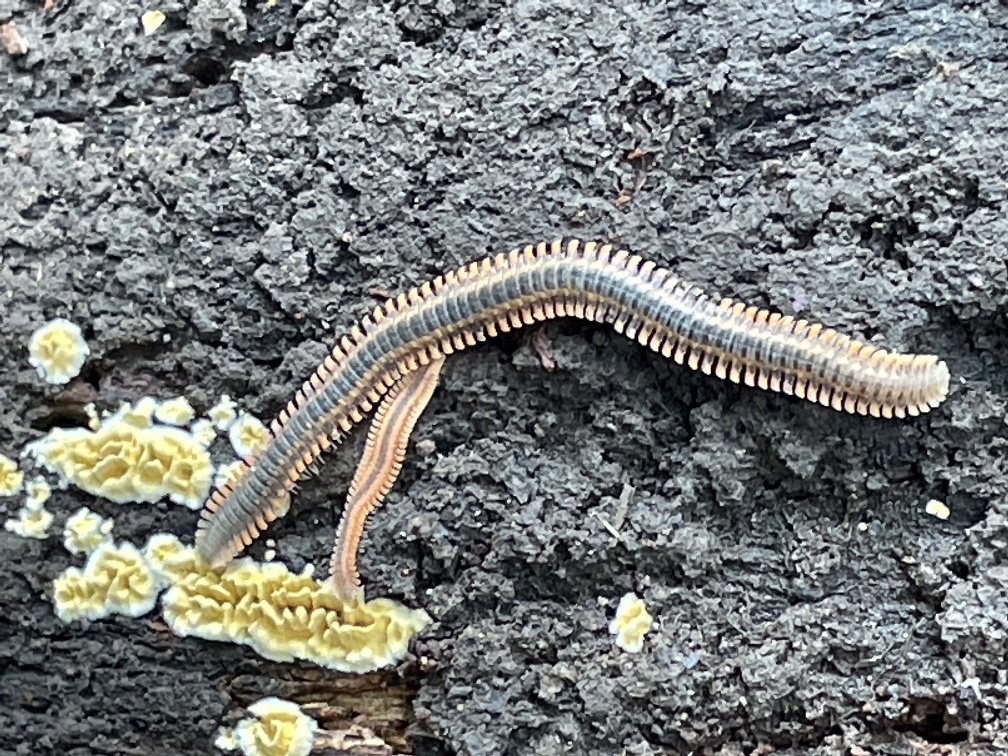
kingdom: Animalia
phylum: Arthropoda
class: Diplopoda
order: Platydesmida
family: Andrognathidae
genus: Brachycybe
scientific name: Brachycybe producta
